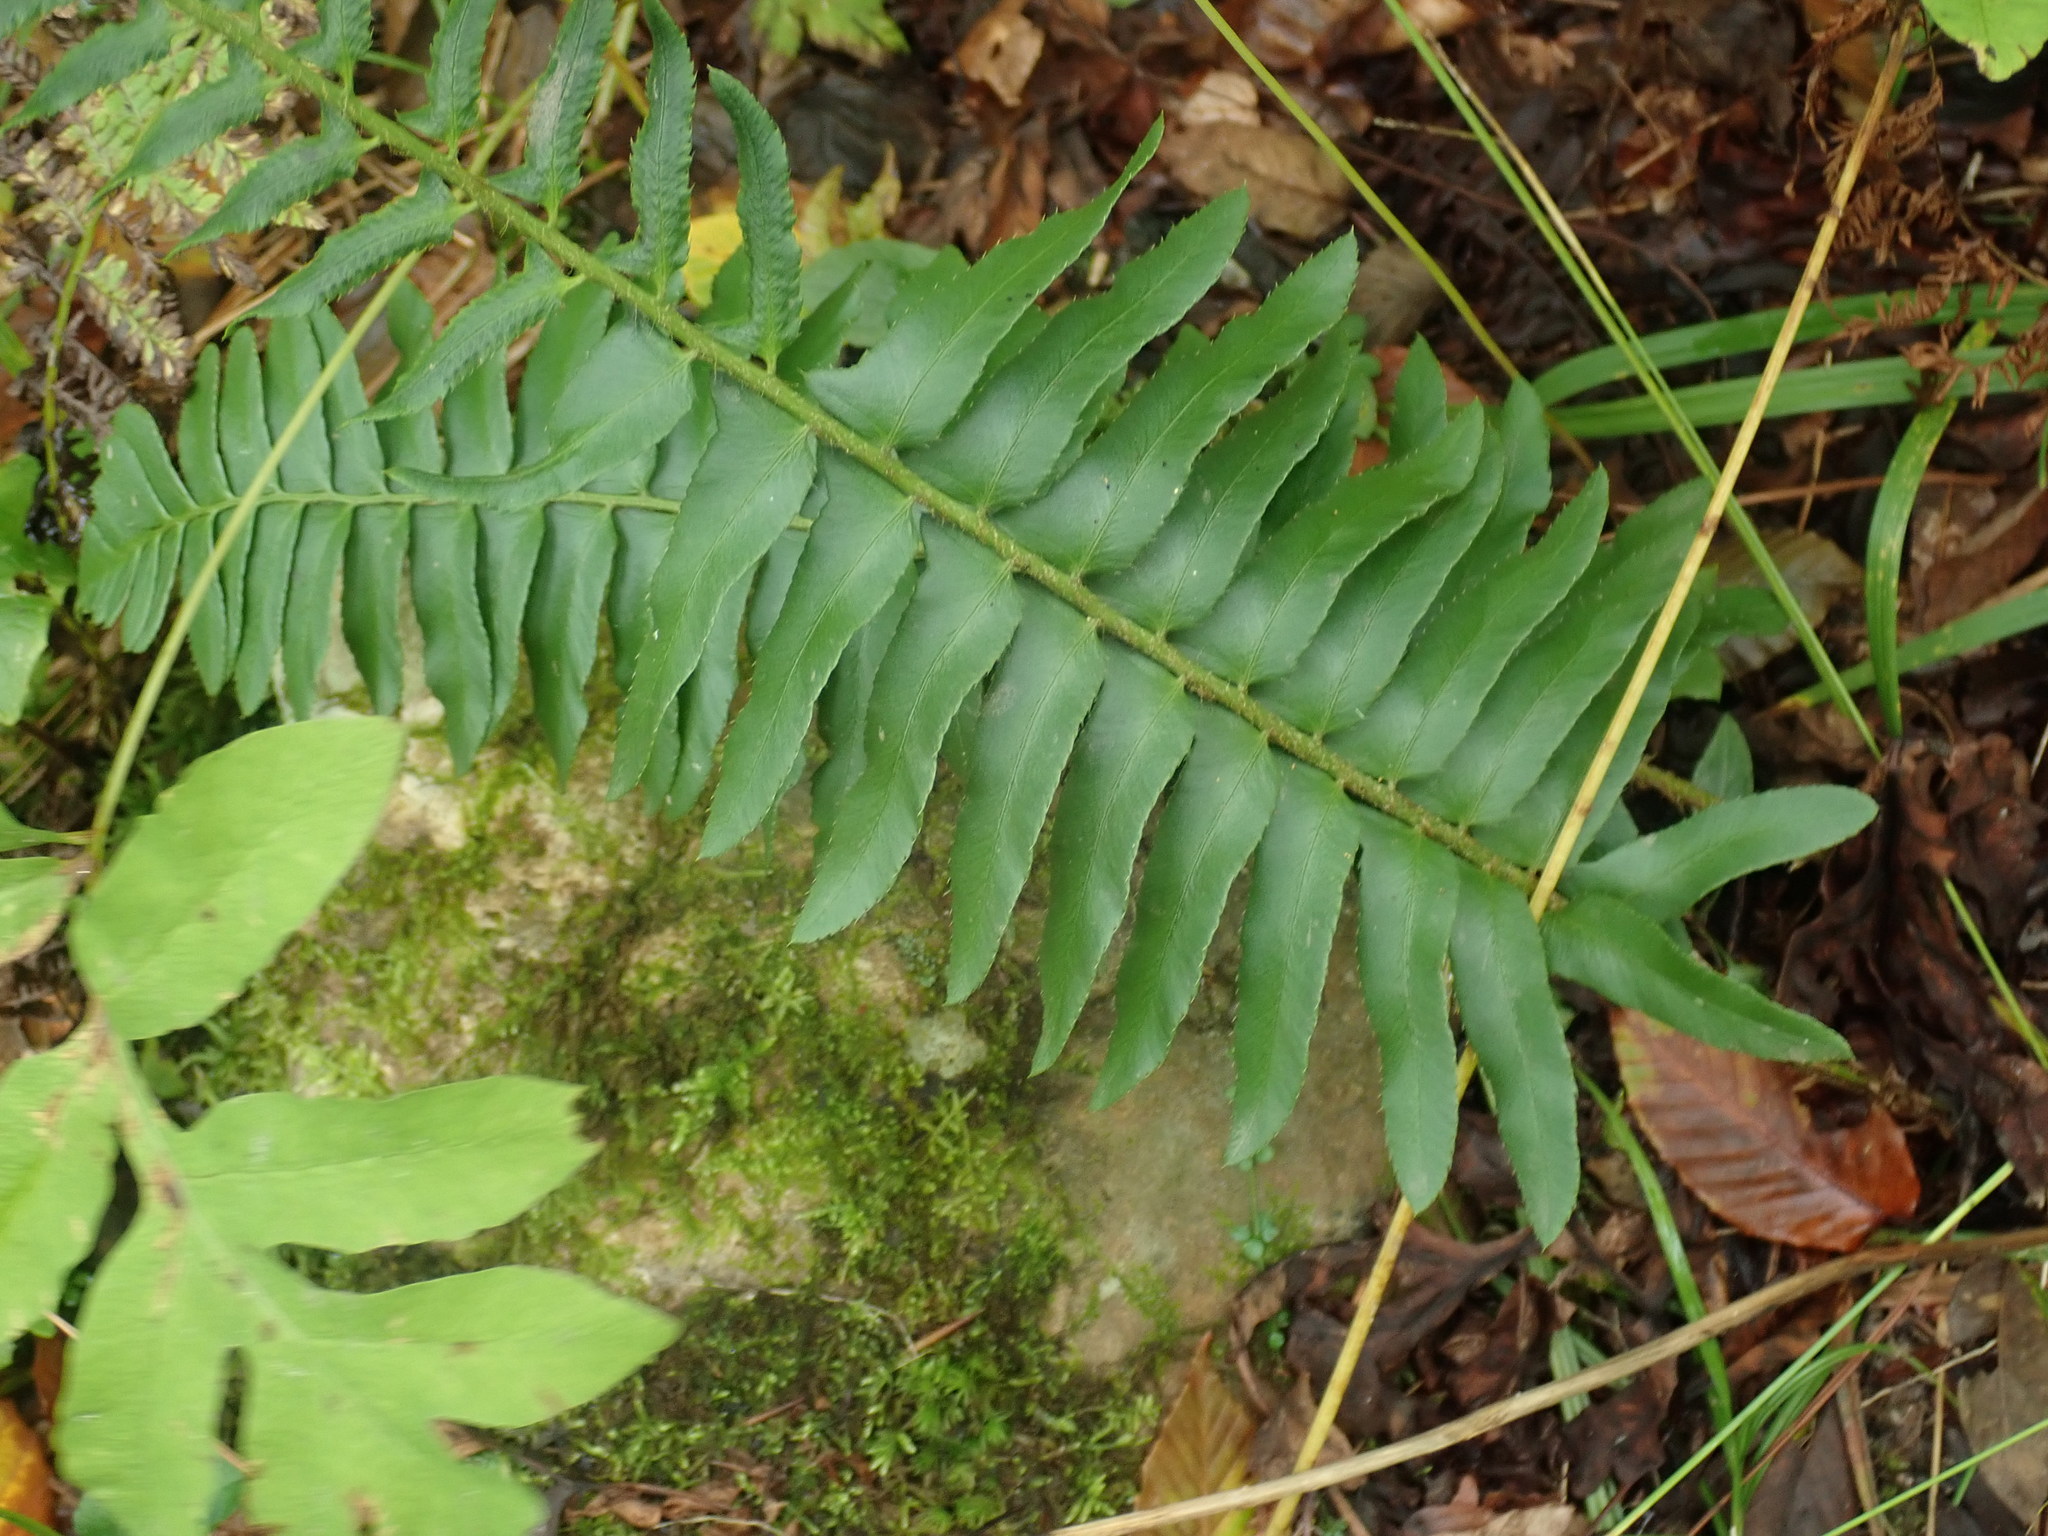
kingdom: Plantae
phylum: Tracheophyta
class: Polypodiopsida
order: Polypodiales
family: Dryopteridaceae
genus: Polystichum
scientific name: Polystichum acrostichoides
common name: Christmas fern
